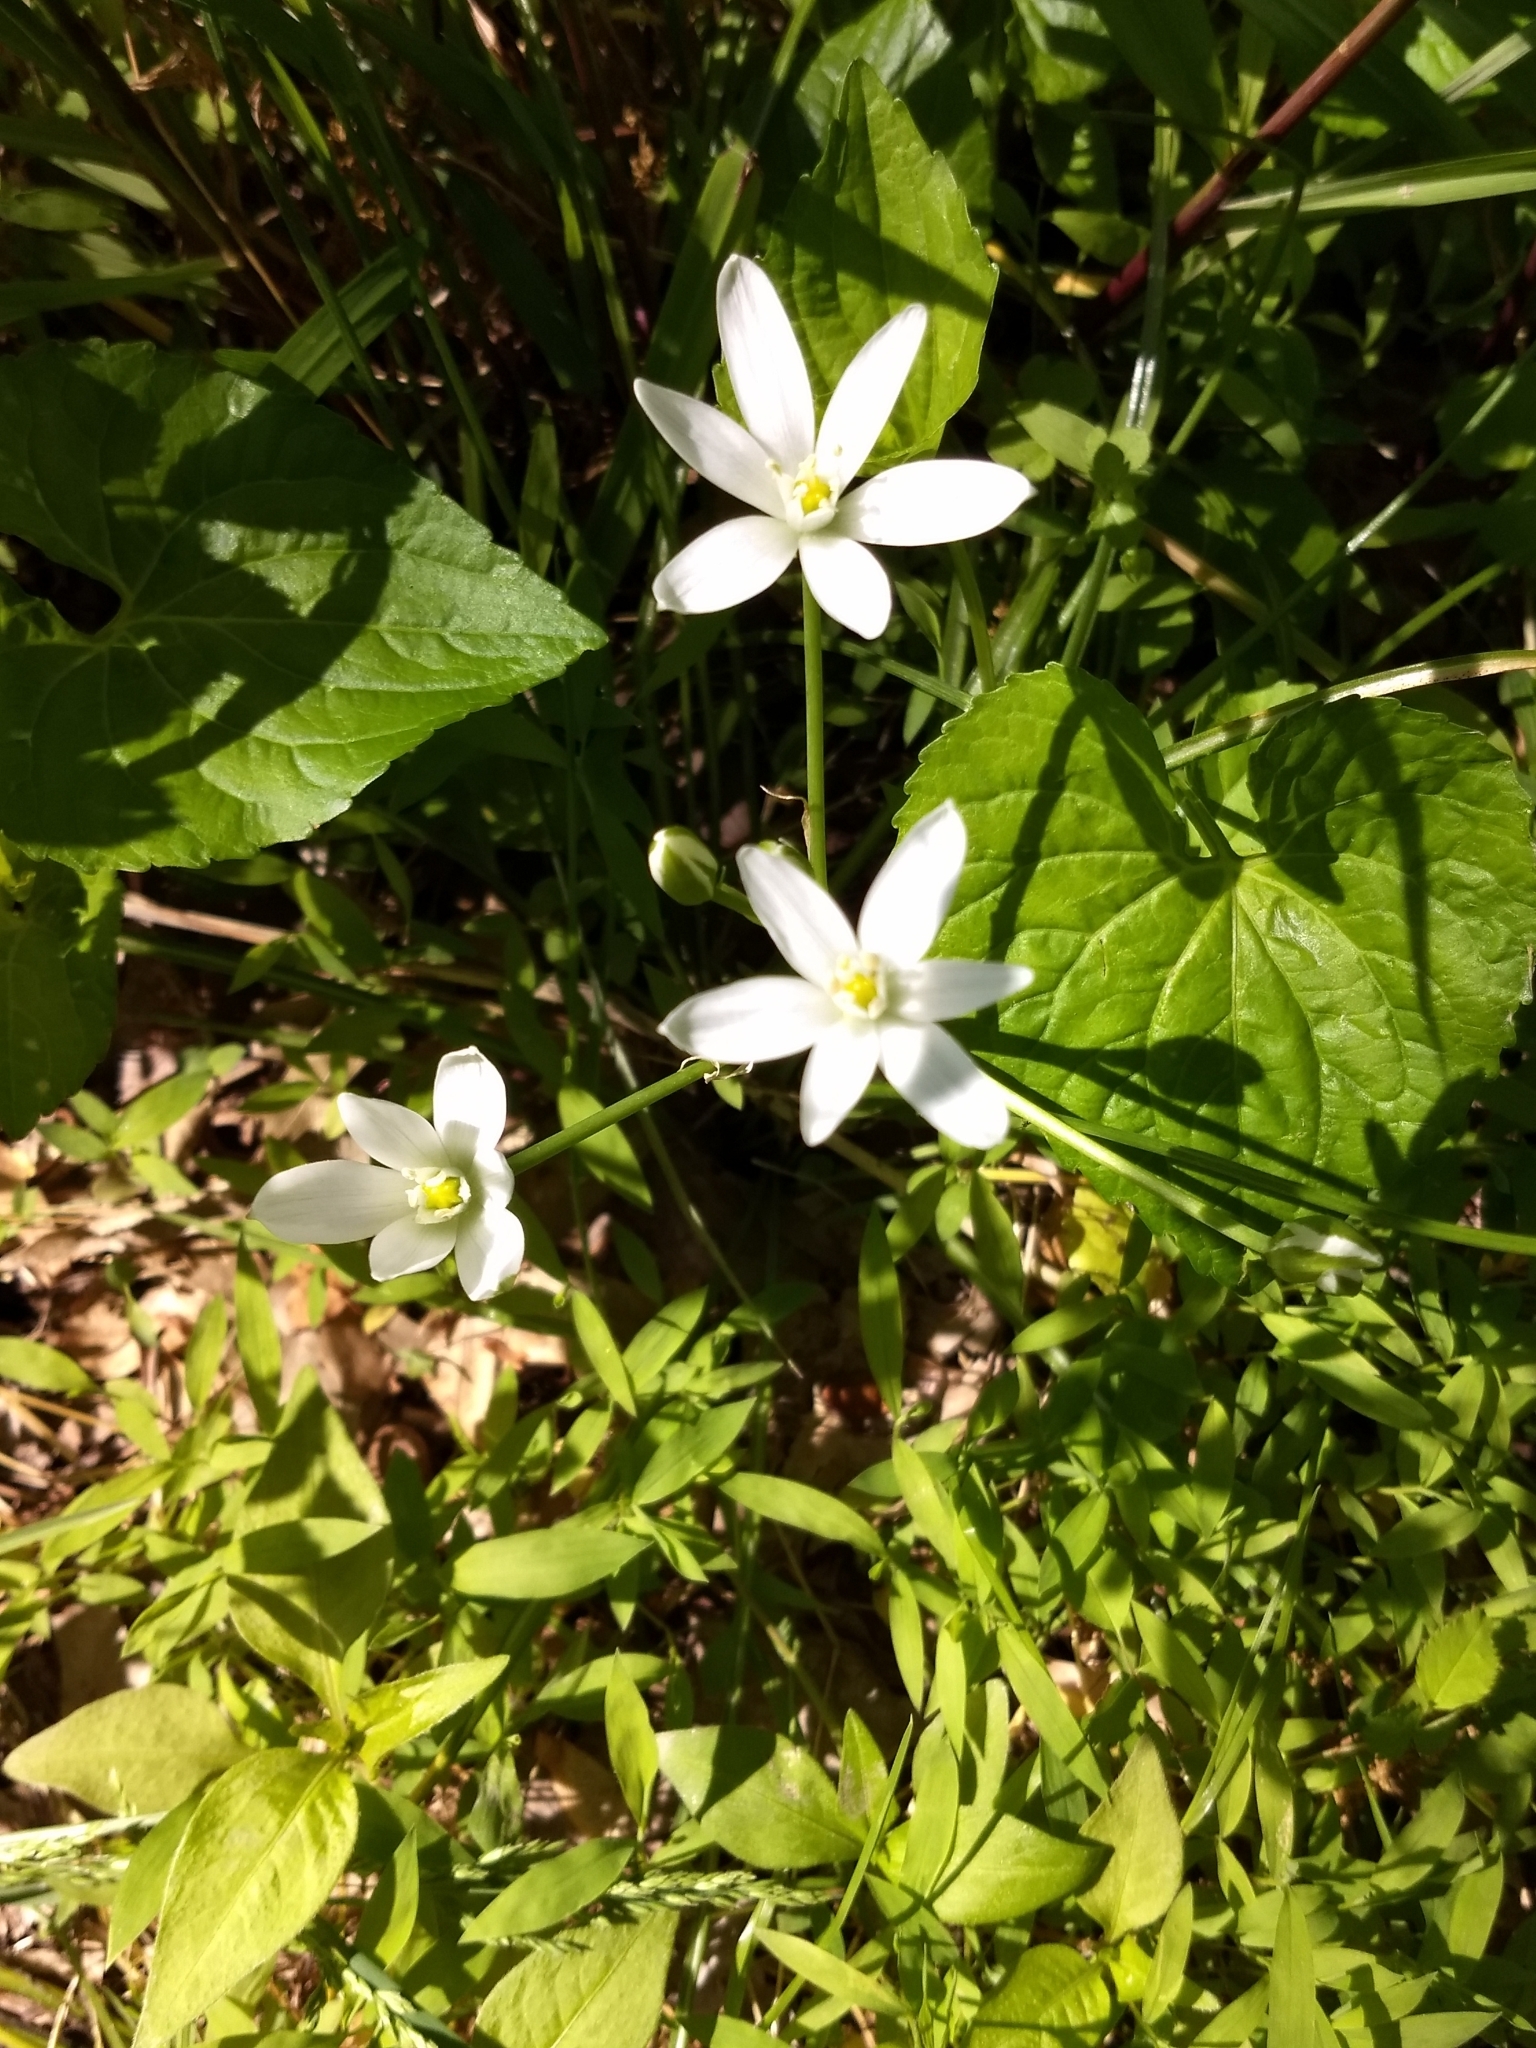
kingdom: Plantae
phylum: Tracheophyta
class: Liliopsida
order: Asparagales
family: Asparagaceae
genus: Ornithogalum
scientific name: Ornithogalum umbellatum
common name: Garden star-of-bethlehem
